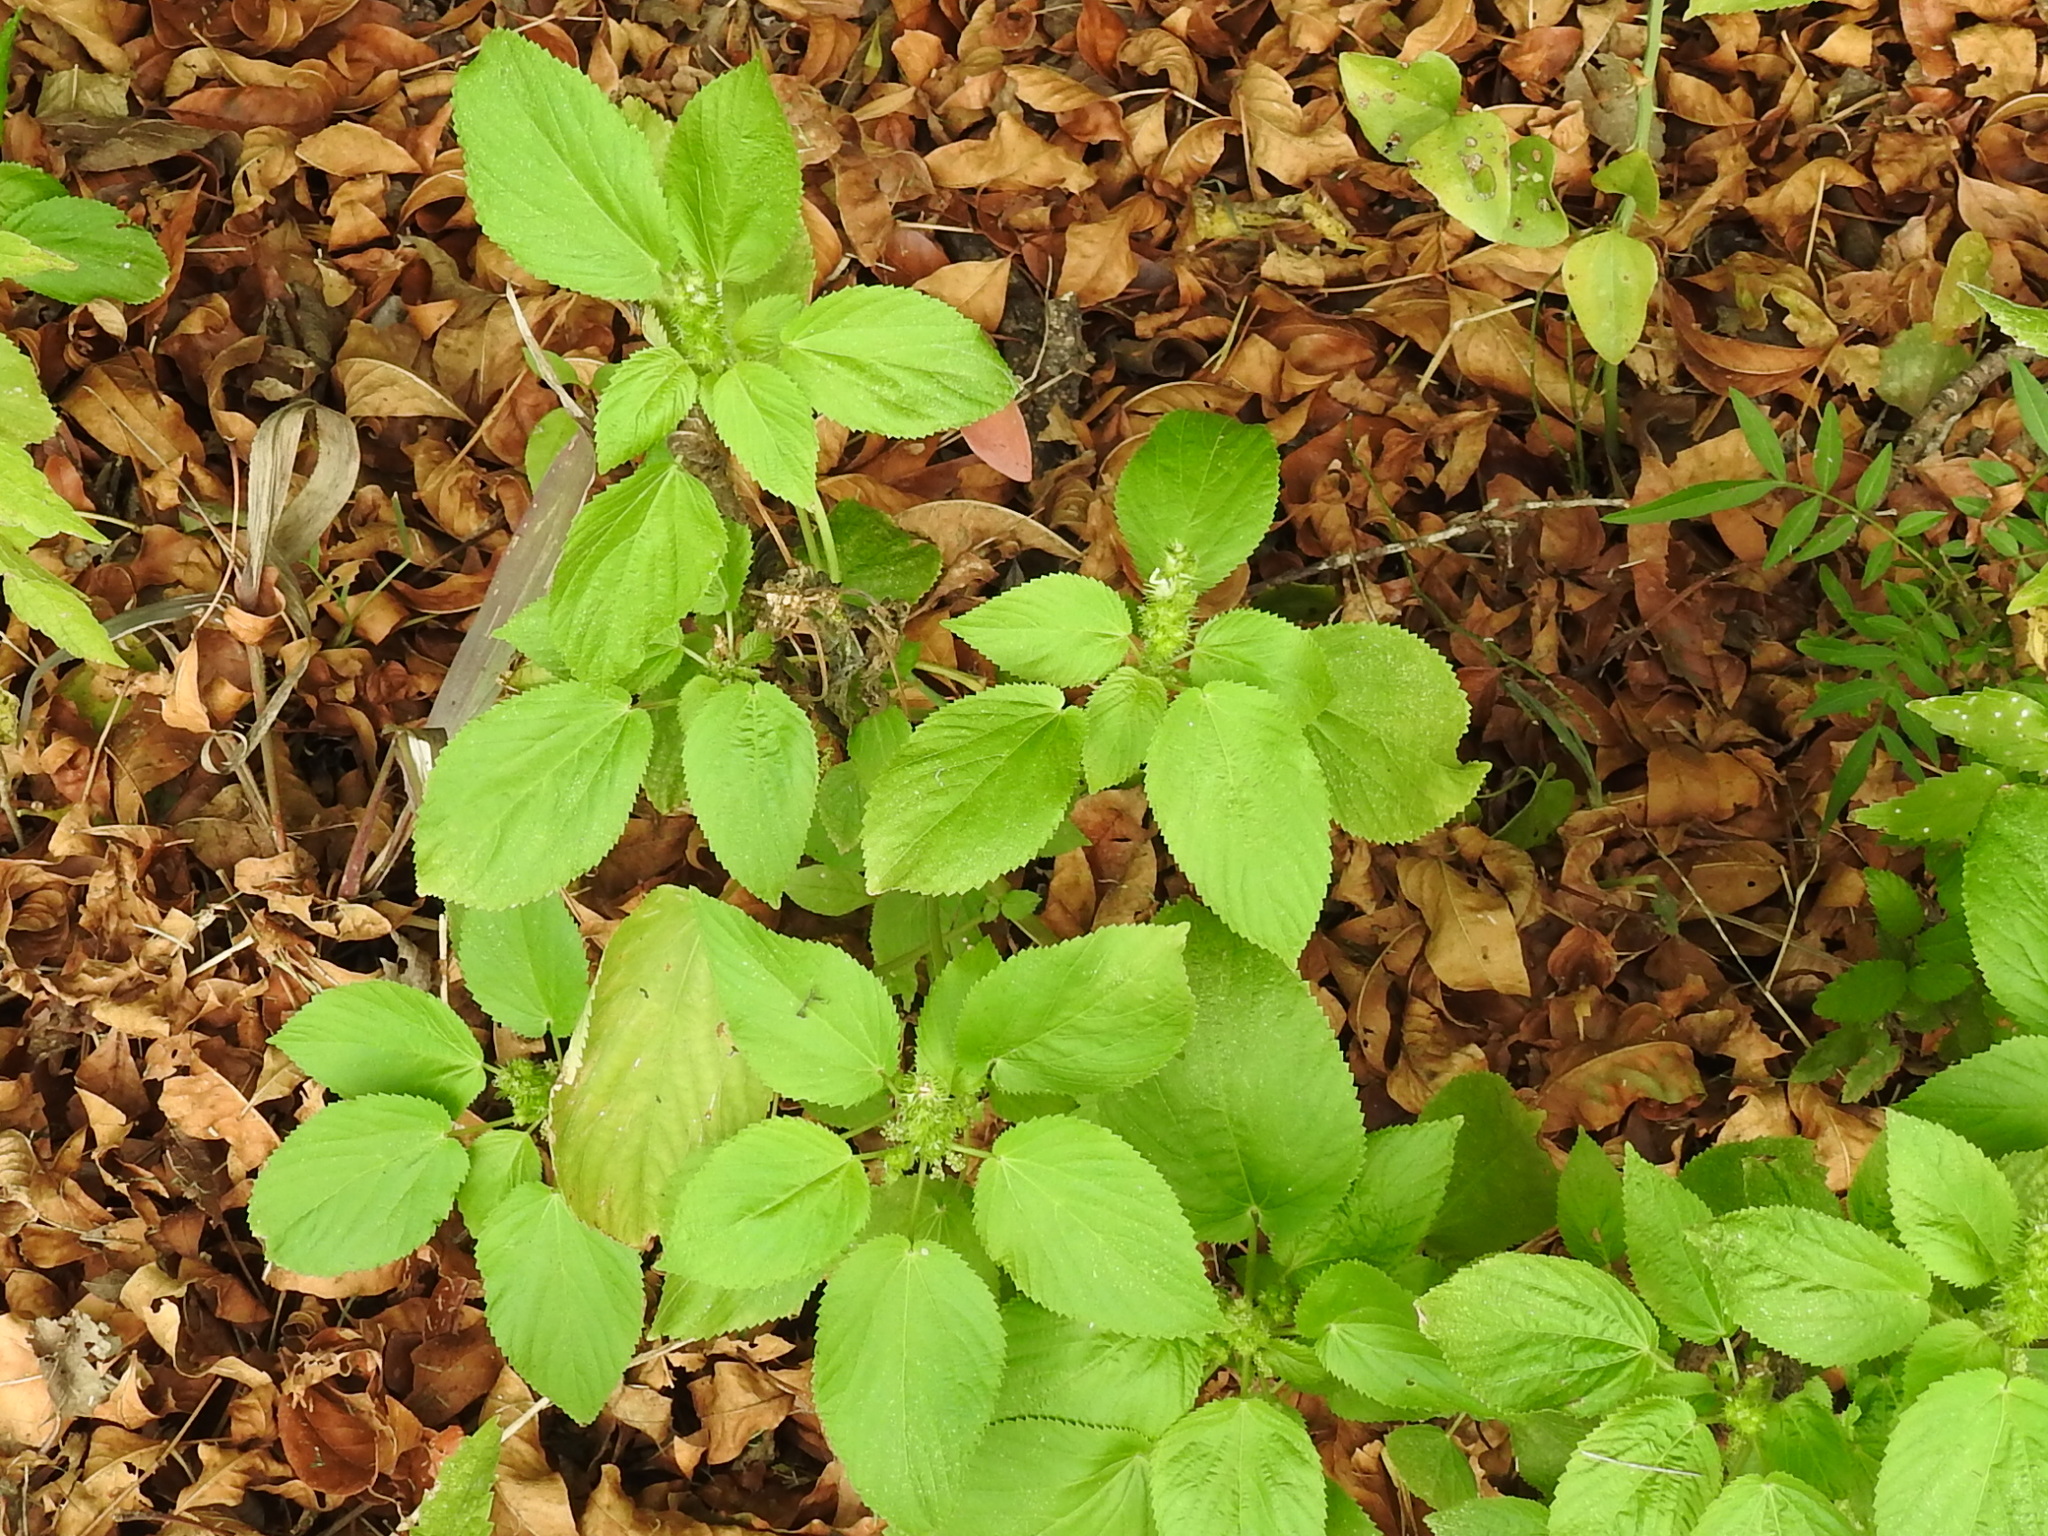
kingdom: Plantae
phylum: Tracheophyta
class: Magnoliopsida
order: Malpighiales
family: Euphorbiaceae
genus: Acalypha
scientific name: Acalypha ostryifolia
